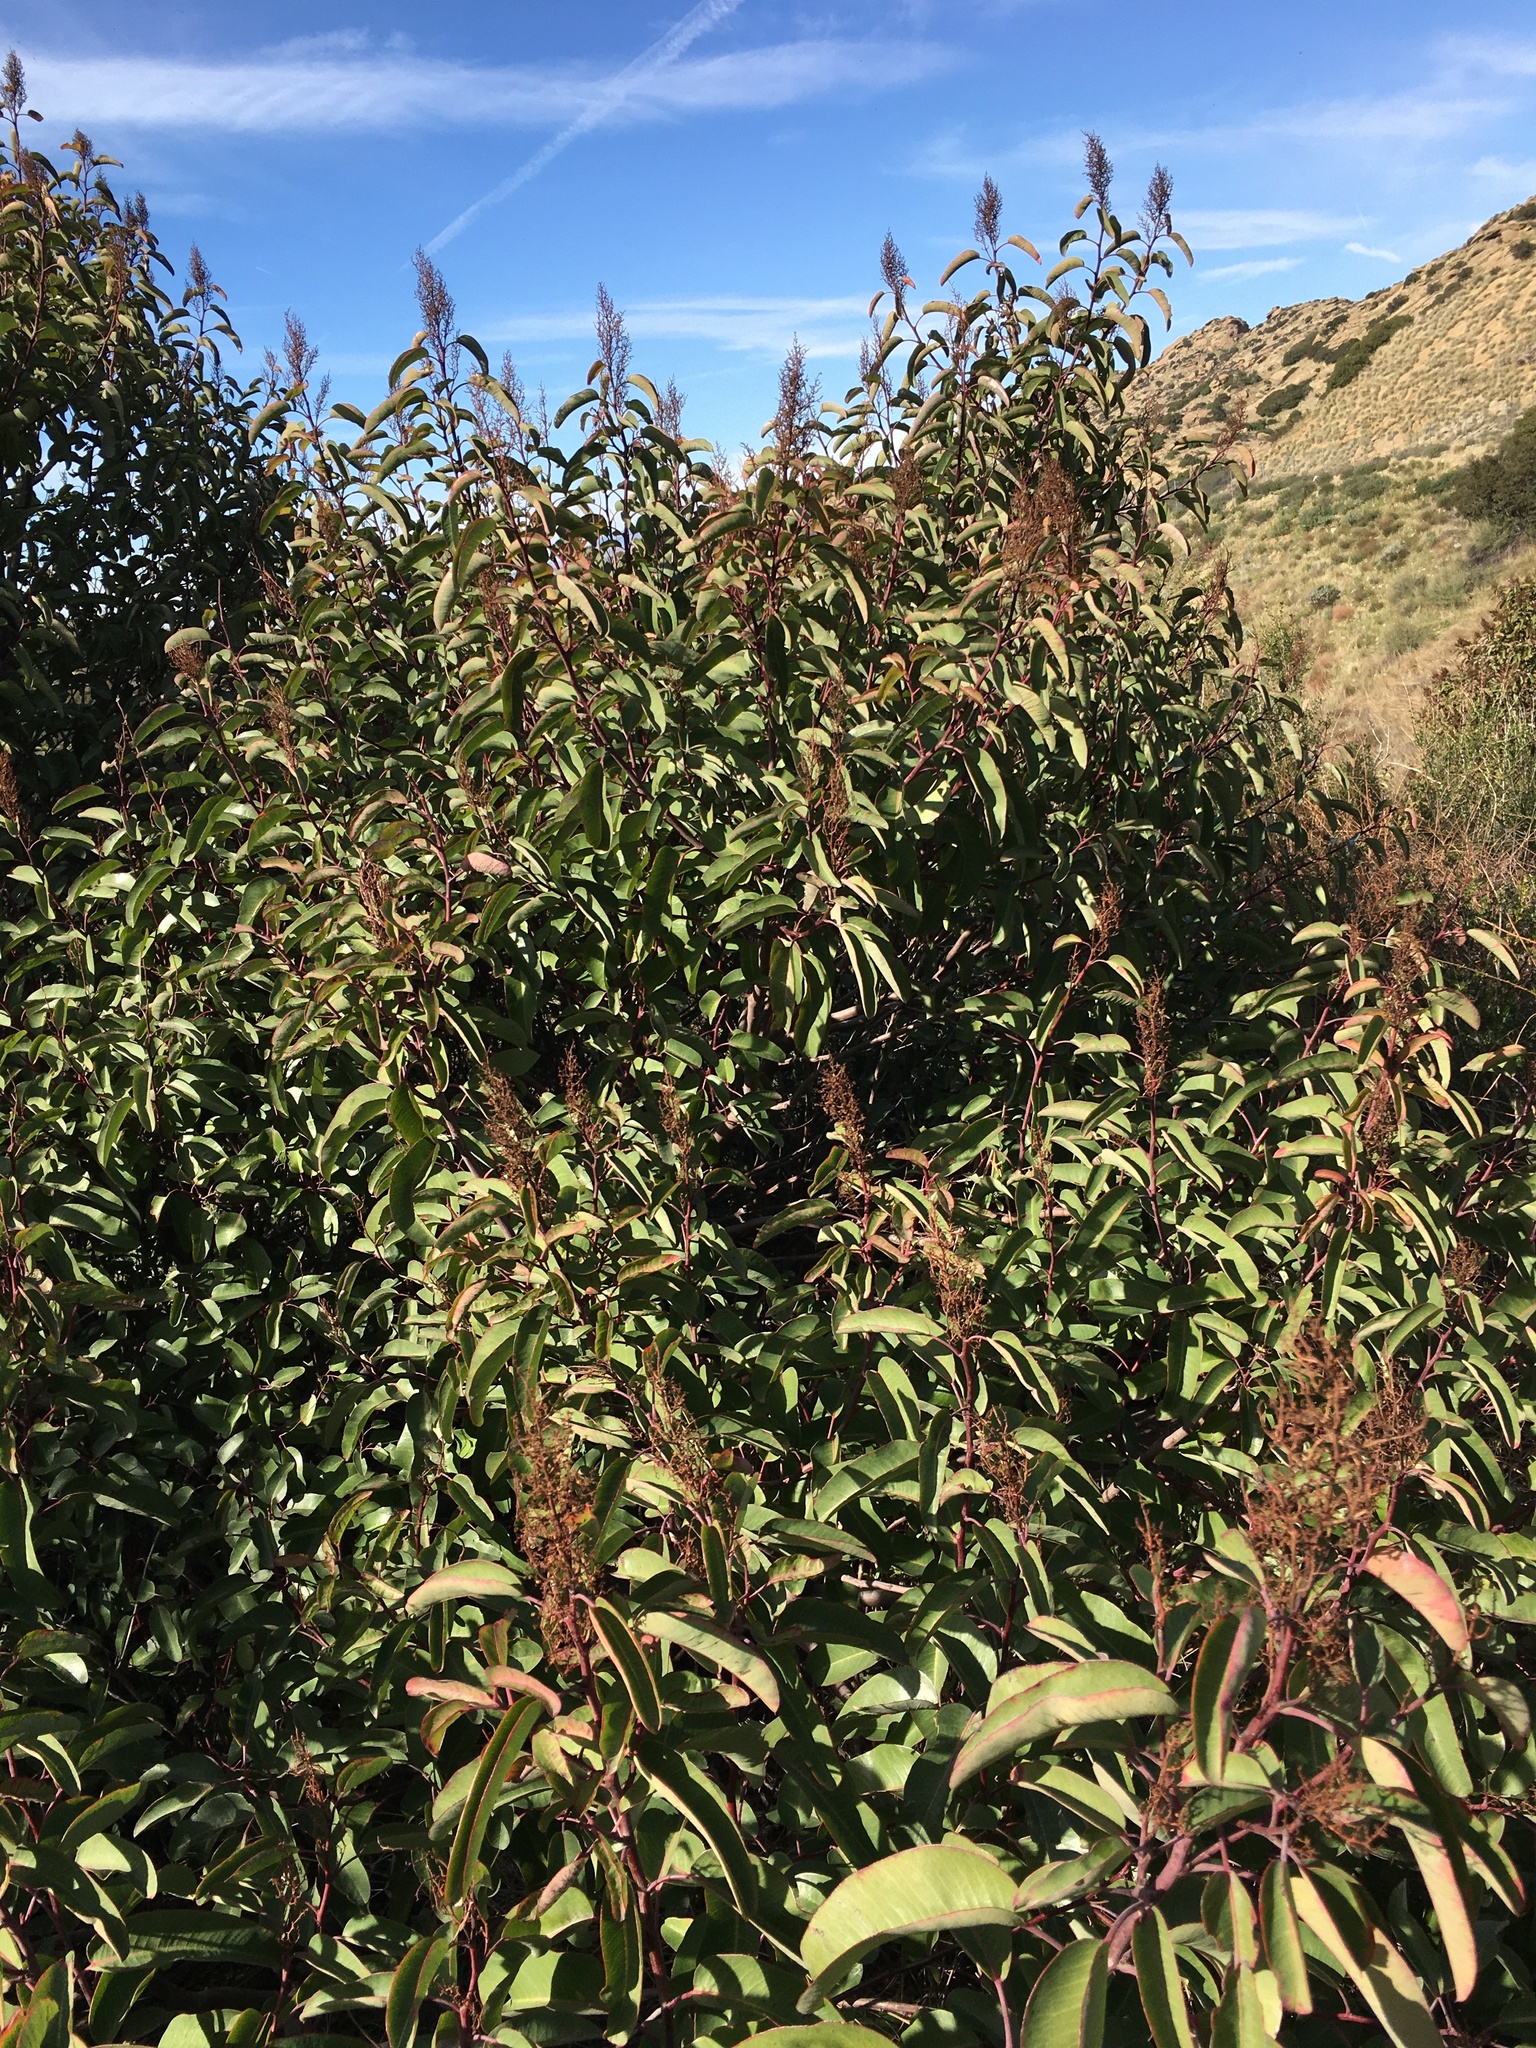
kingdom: Plantae
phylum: Tracheophyta
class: Magnoliopsida
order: Sapindales
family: Anacardiaceae
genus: Malosma
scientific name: Malosma laurina
